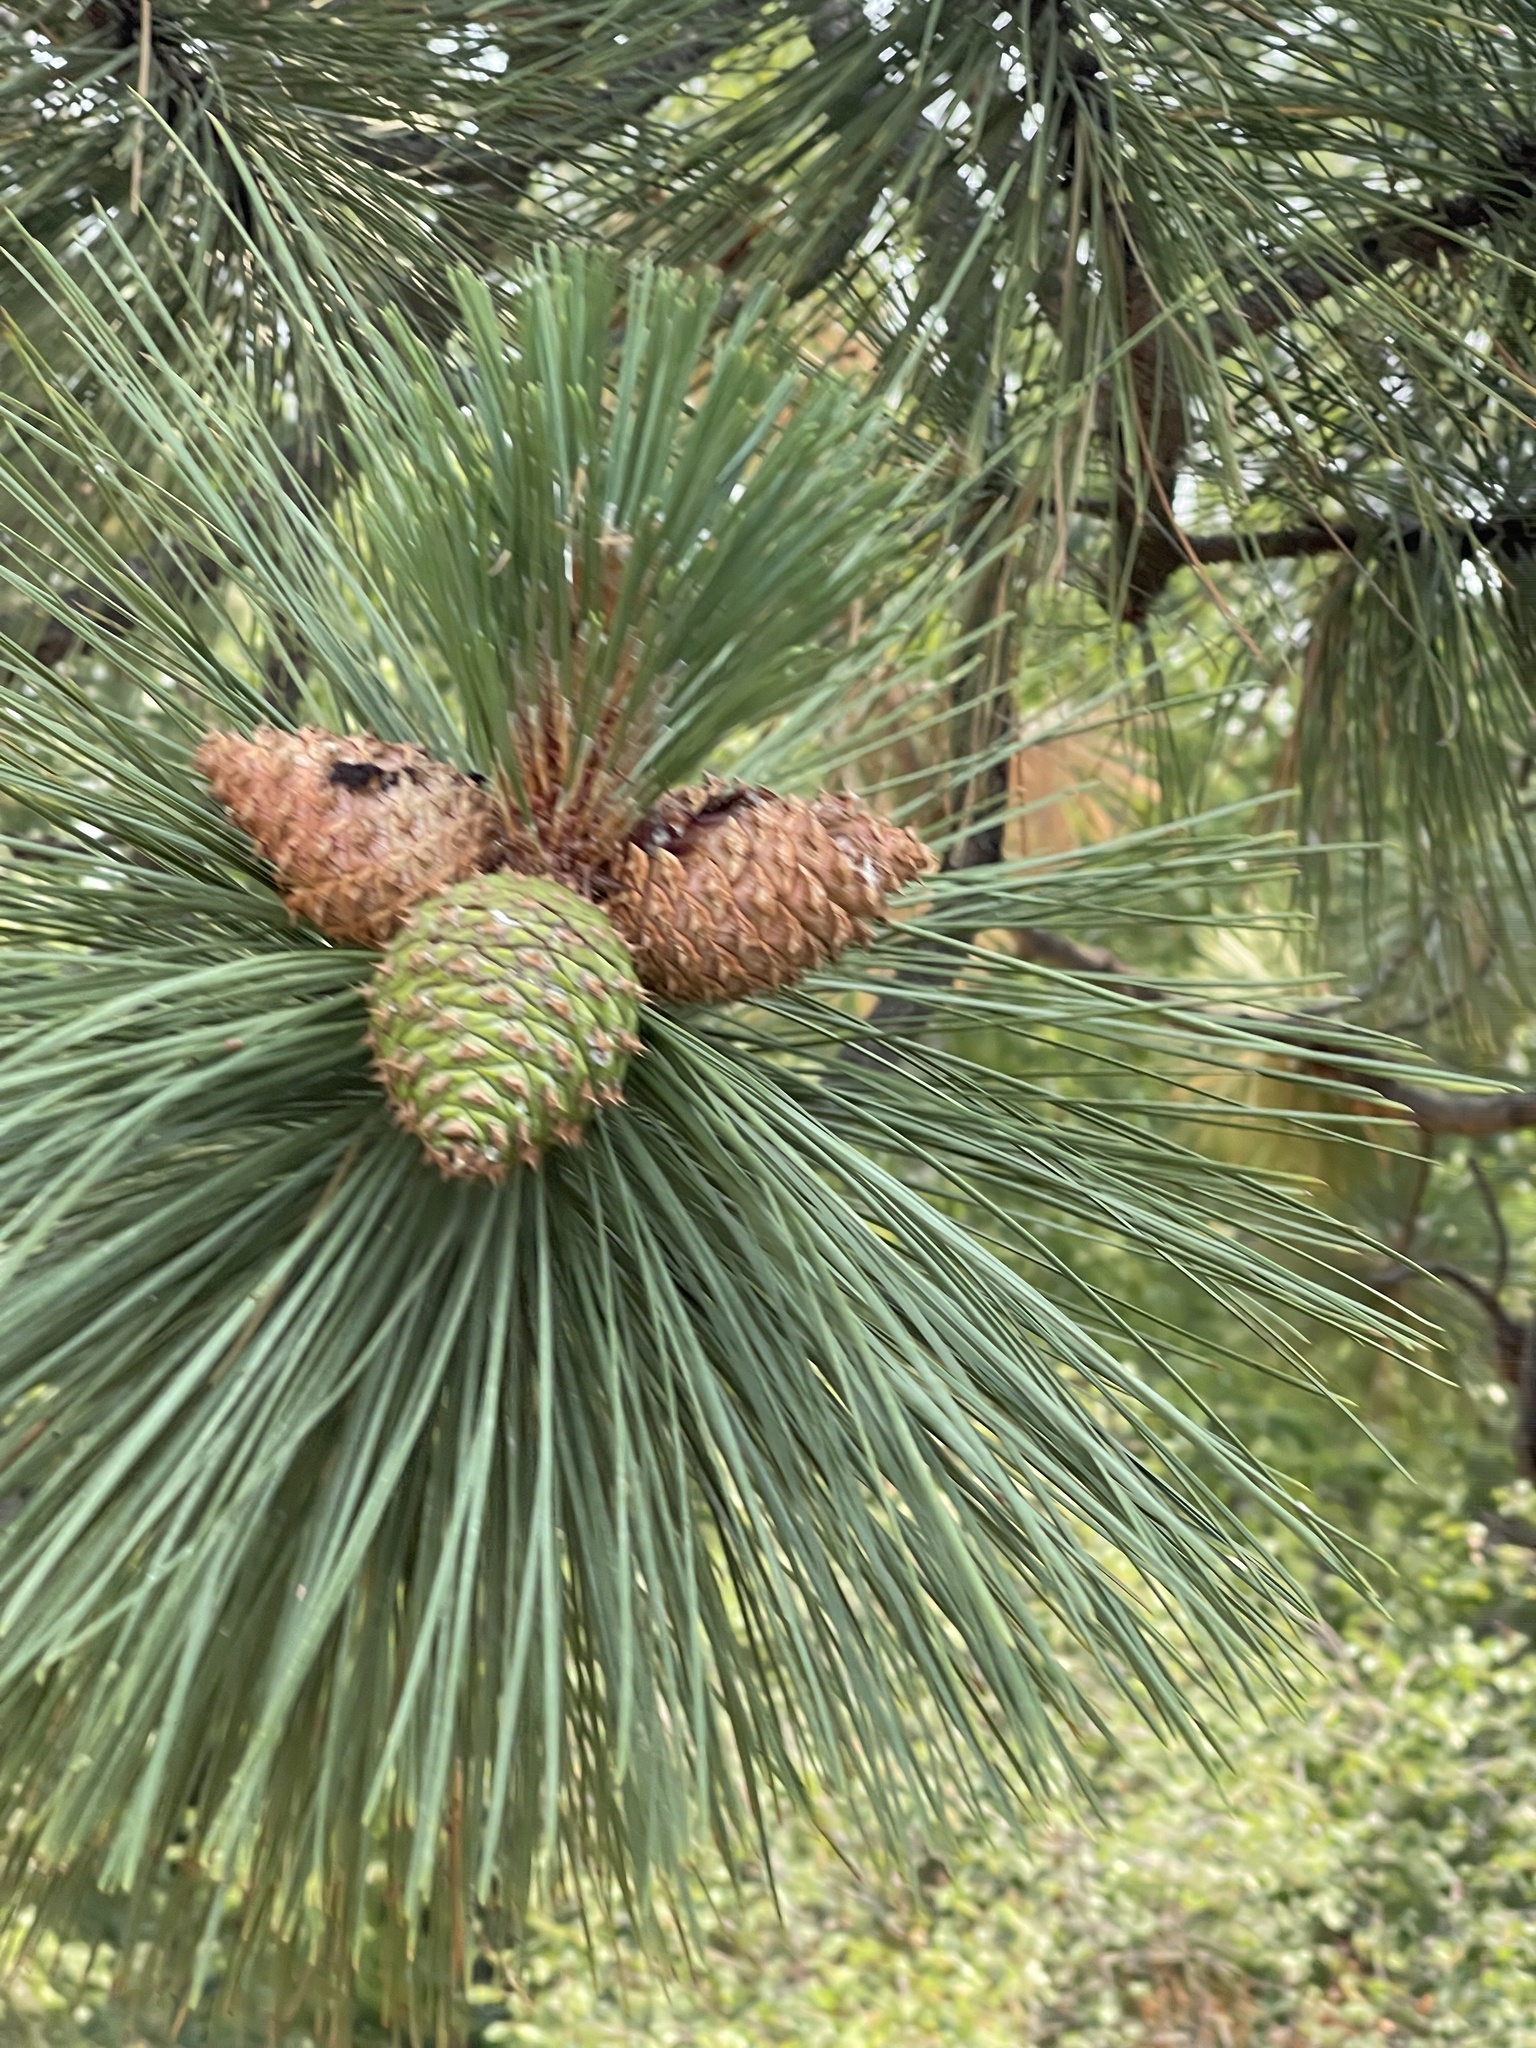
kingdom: Plantae
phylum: Tracheophyta
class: Pinopsida
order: Pinales
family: Pinaceae
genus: Pinus
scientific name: Pinus ponderosa
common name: Western yellow-pine
